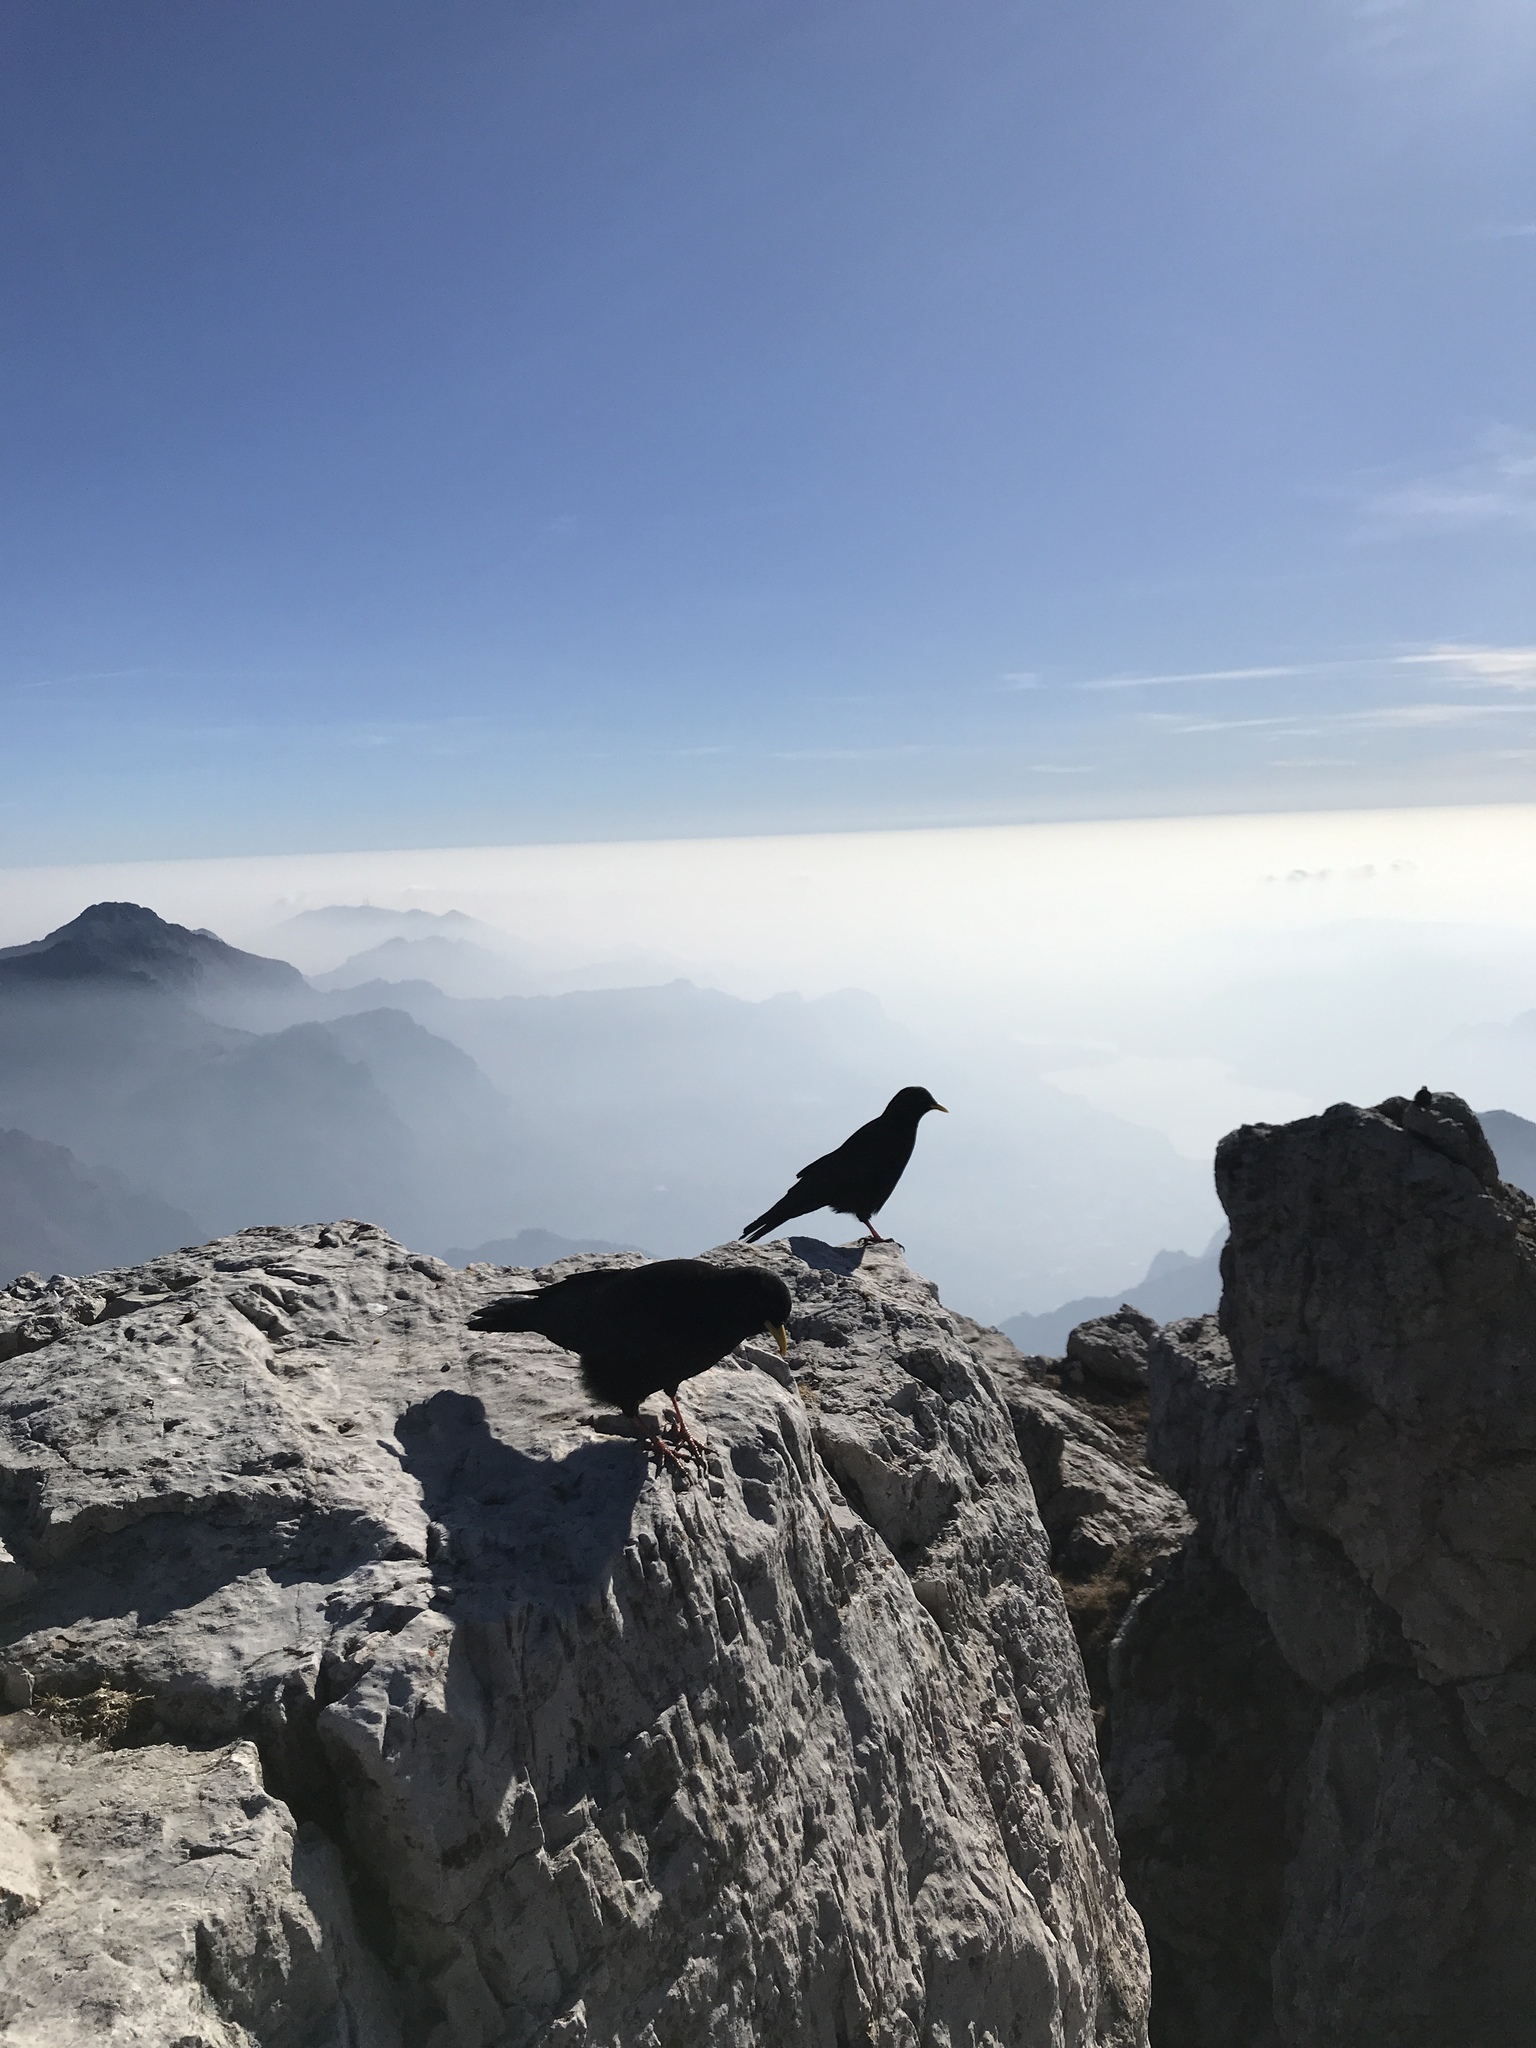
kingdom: Animalia
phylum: Chordata
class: Aves
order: Passeriformes
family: Corvidae
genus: Pyrrhocorax
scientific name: Pyrrhocorax graculus
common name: Alpine chough
